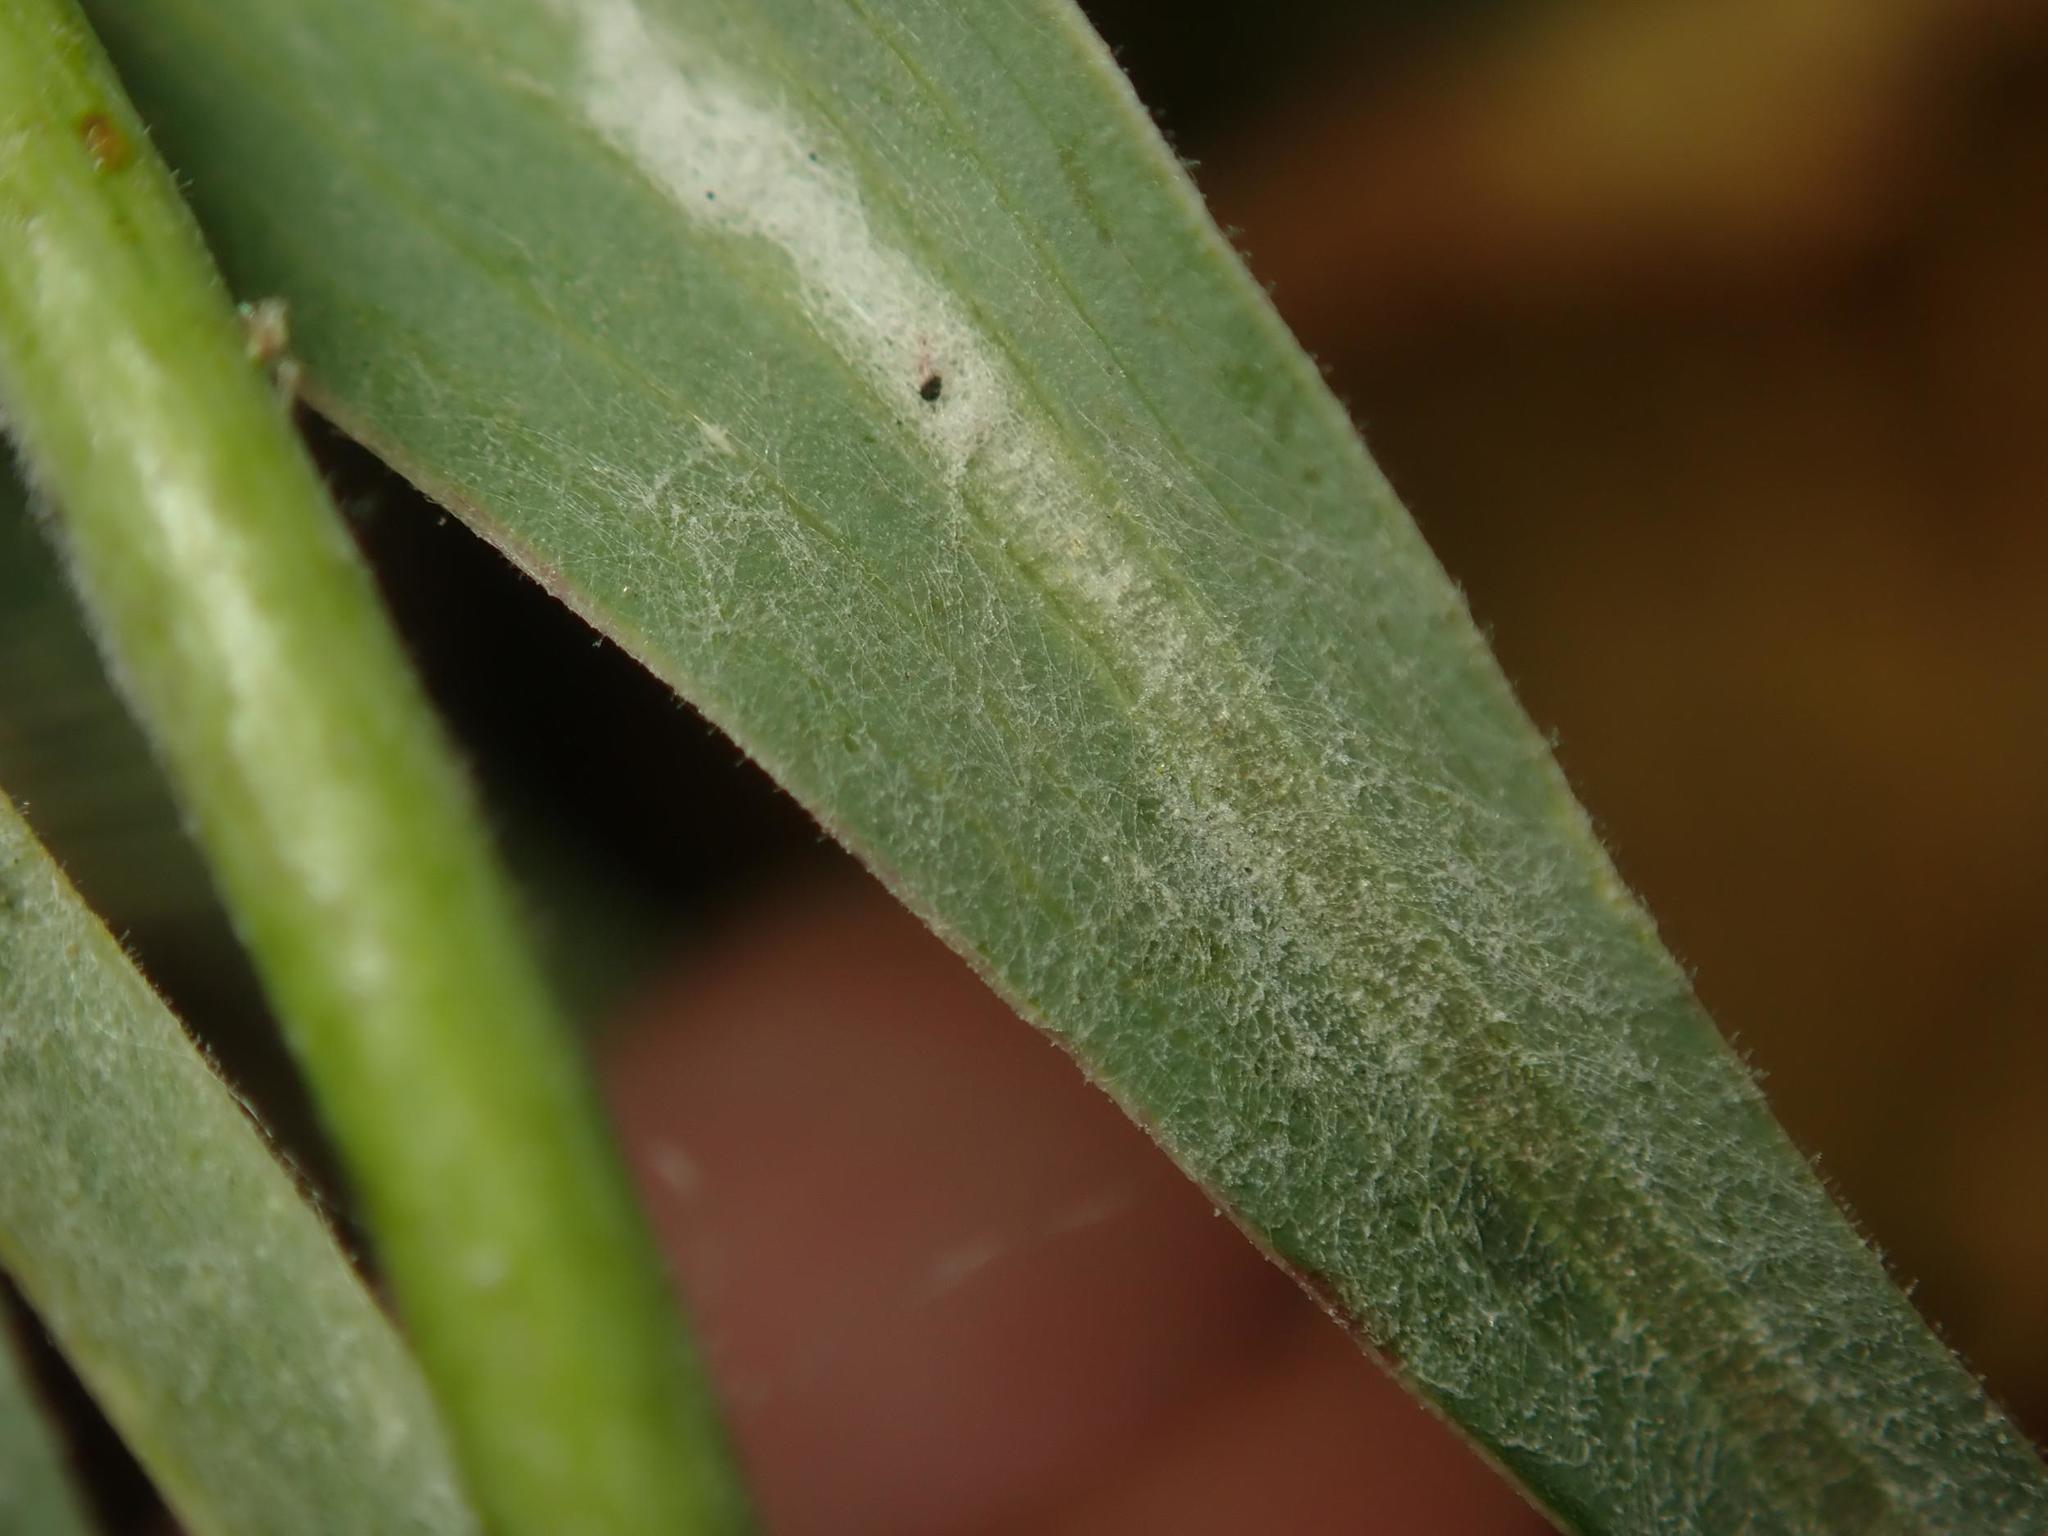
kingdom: Fungi
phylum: Ascomycota
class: Leotiomycetes
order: Helotiales
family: Erysiphaceae
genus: Golovinomyces
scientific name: Golovinomyces cichoracearum
